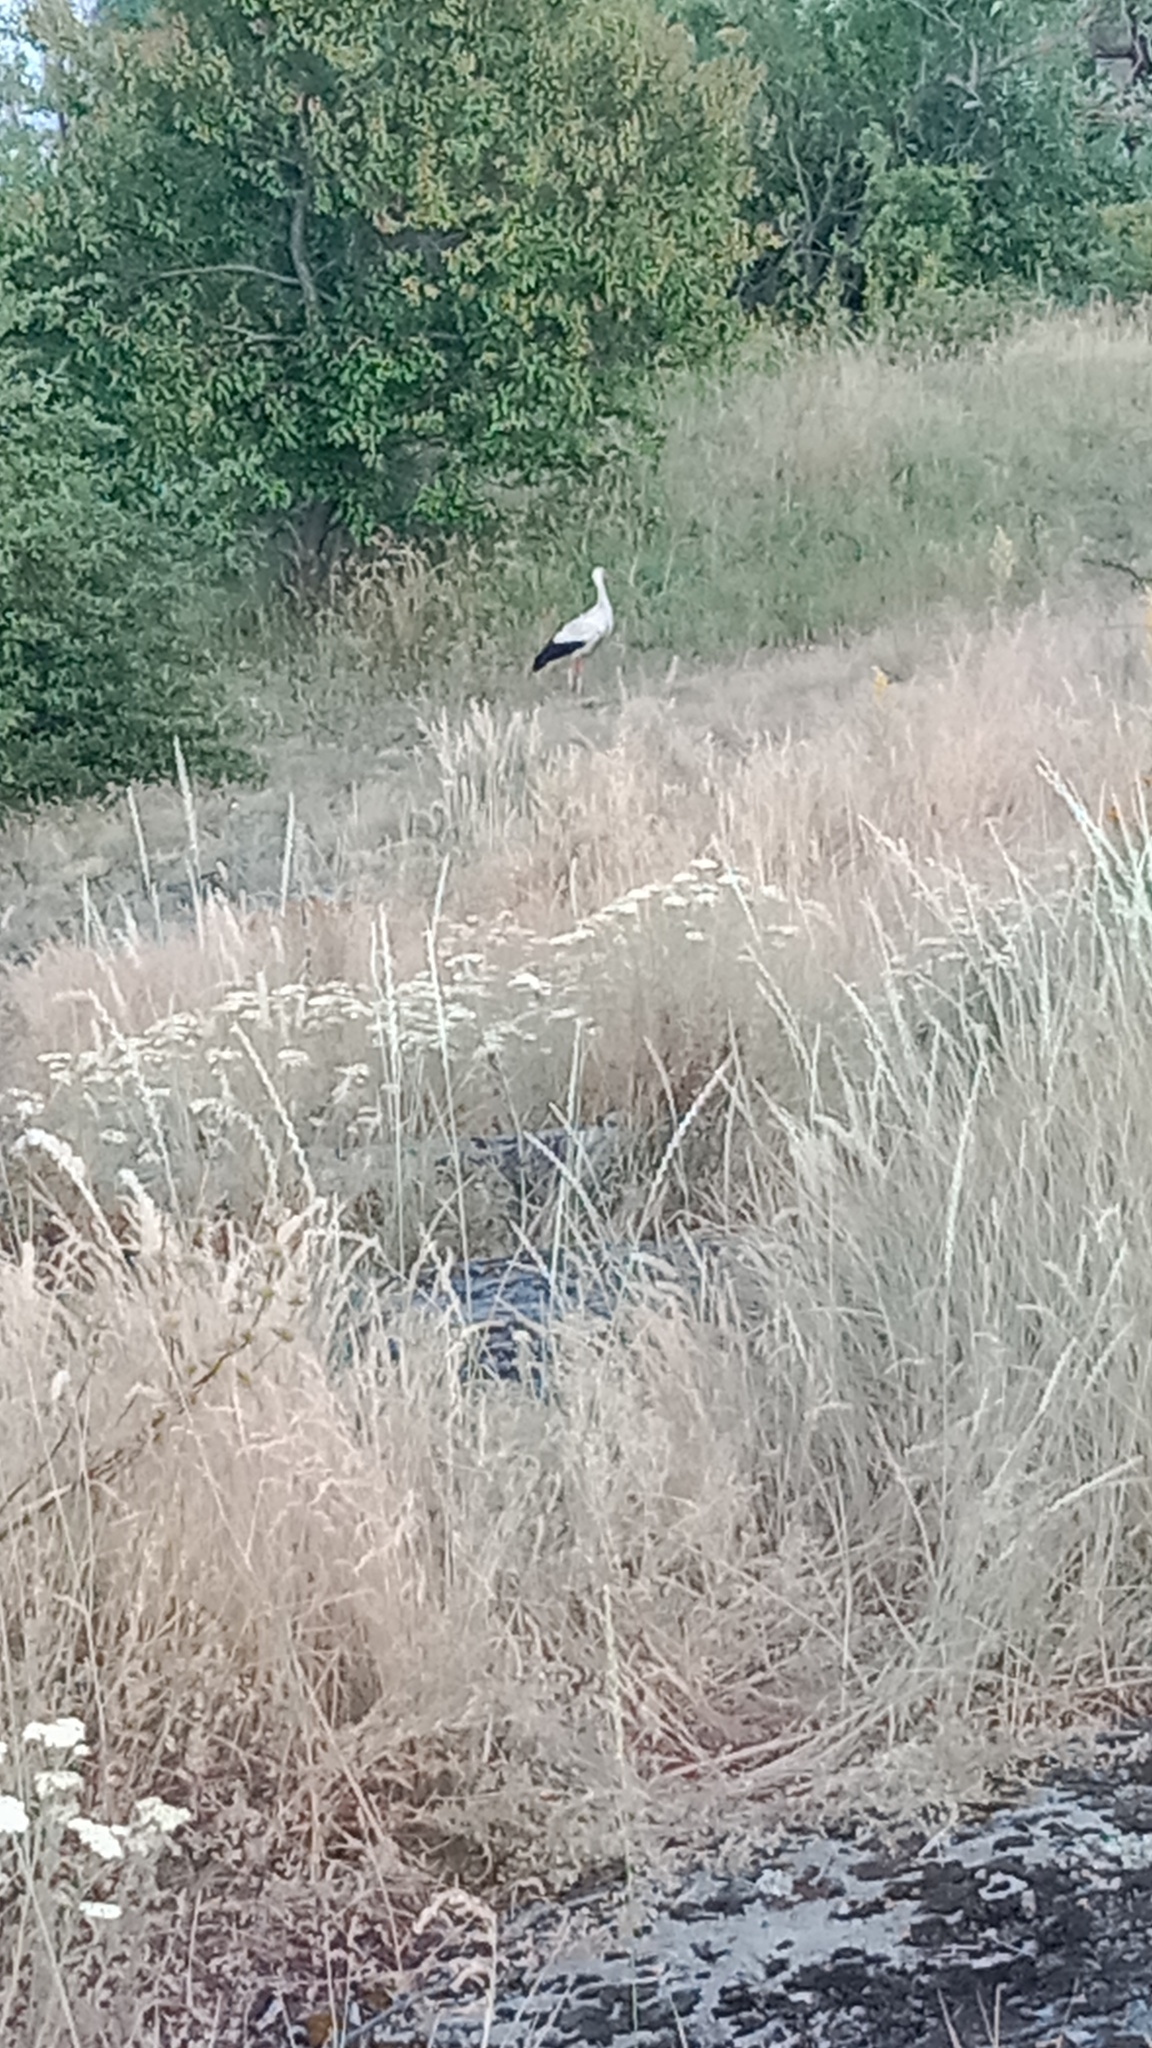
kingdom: Animalia
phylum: Chordata
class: Aves
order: Ciconiiformes
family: Ciconiidae
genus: Ciconia
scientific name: Ciconia ciconia
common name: White stork
